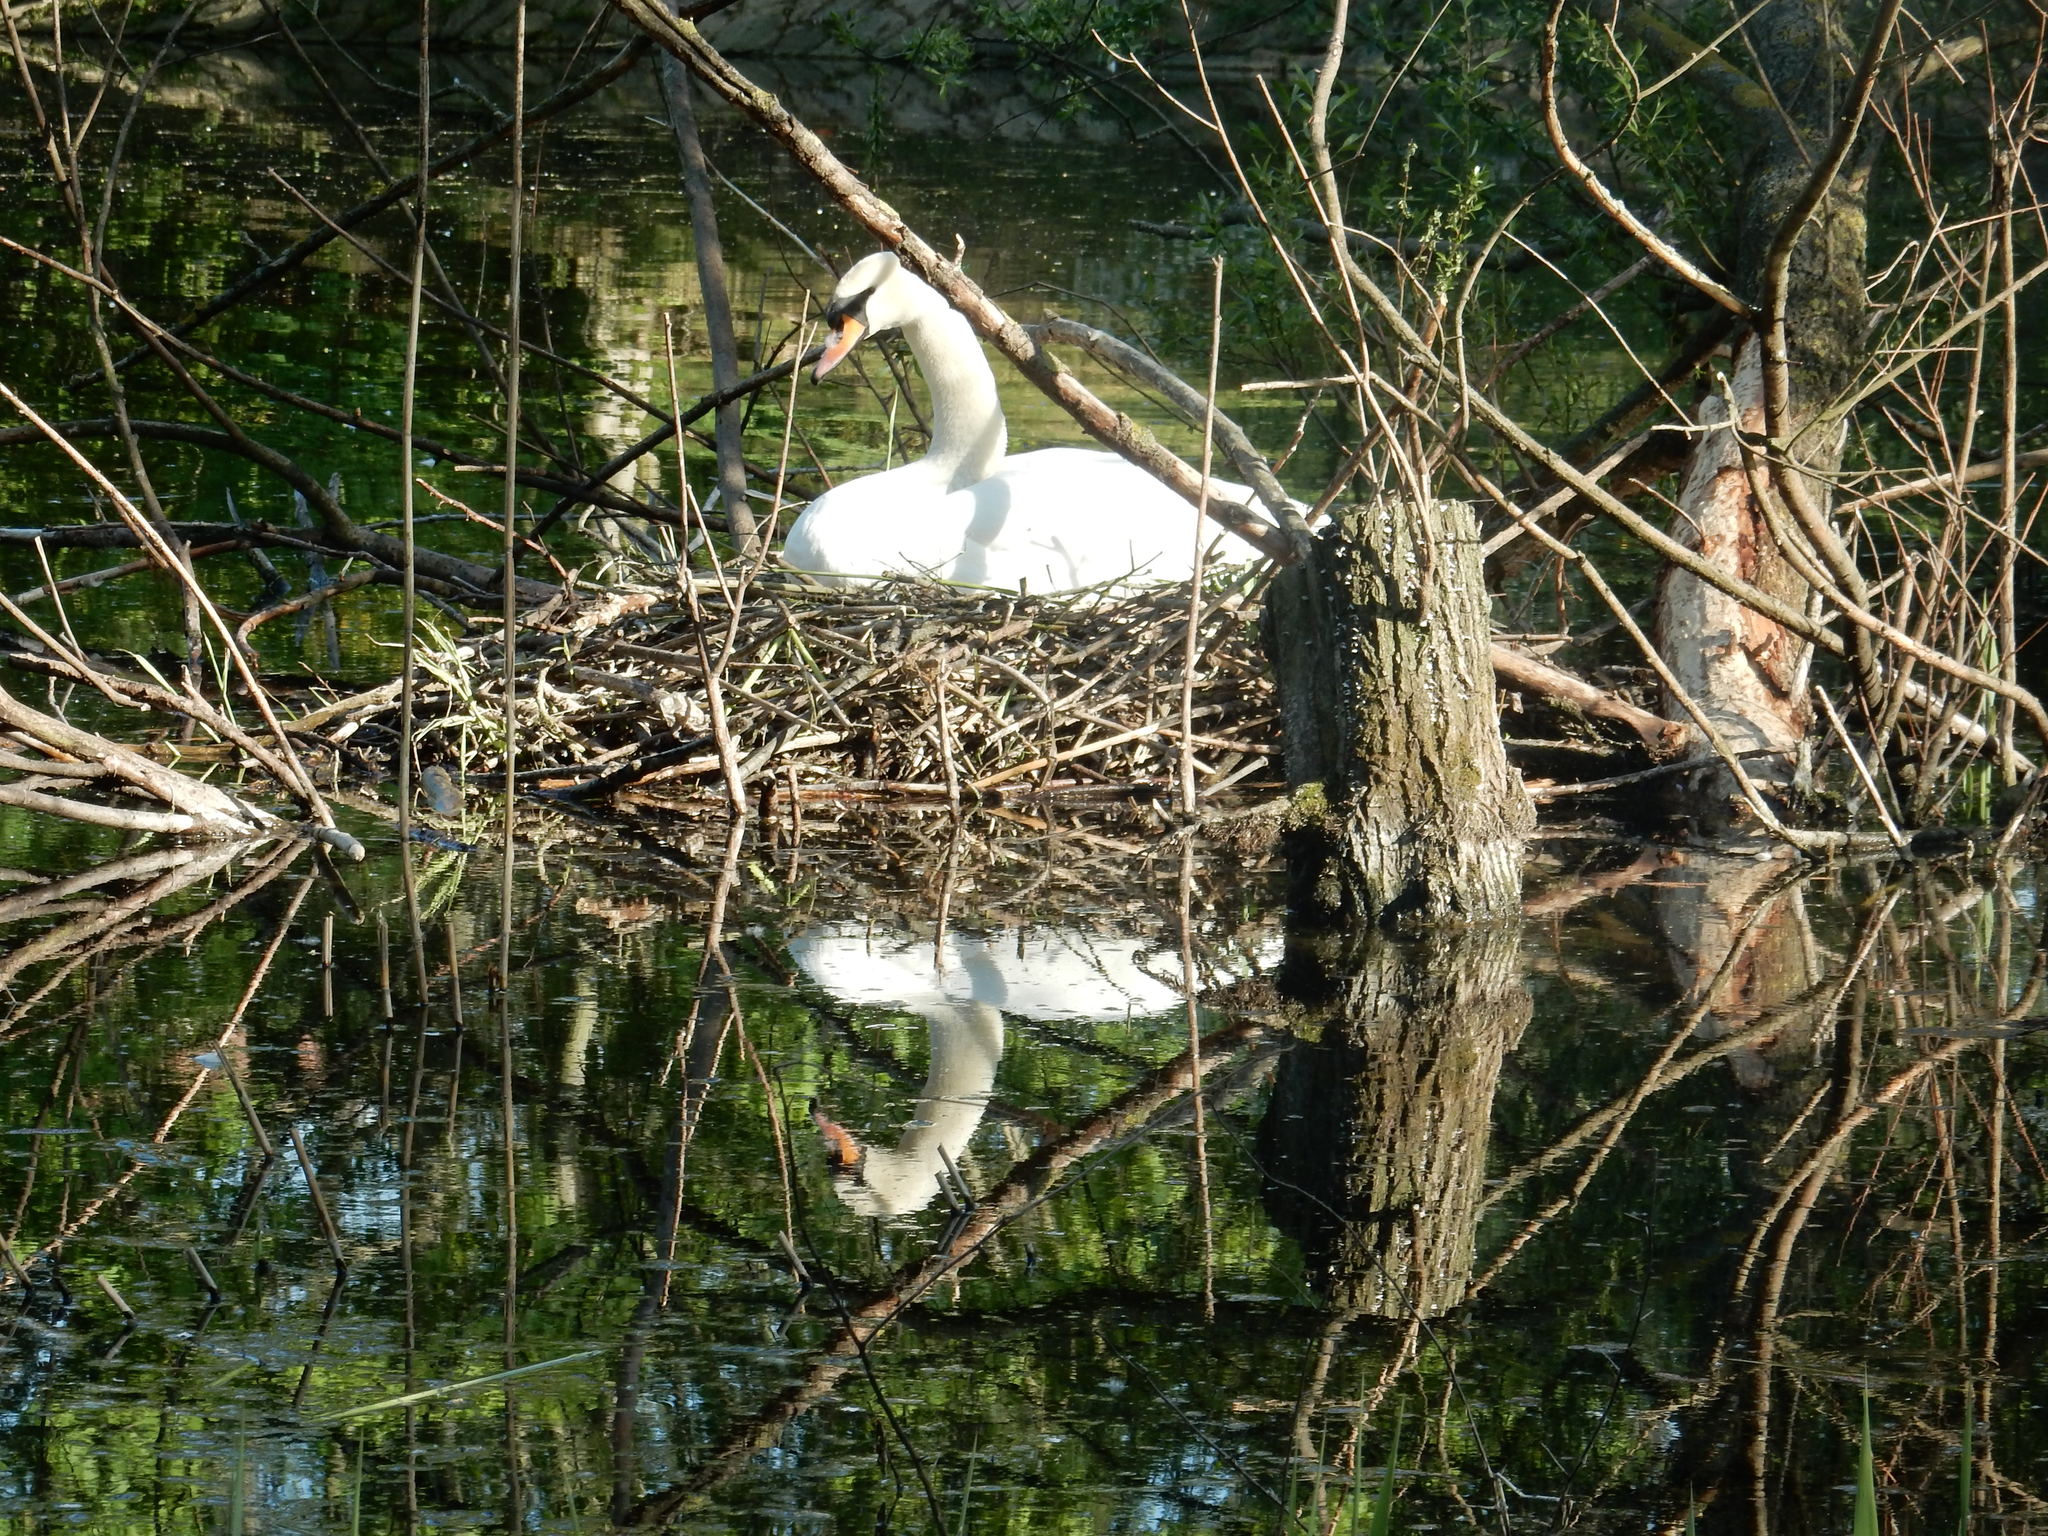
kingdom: Animalia
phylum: Chordata
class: Aves
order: Anseriformes
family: Anatidae
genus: Cygnus
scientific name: Cygnus olor
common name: Mute swan
